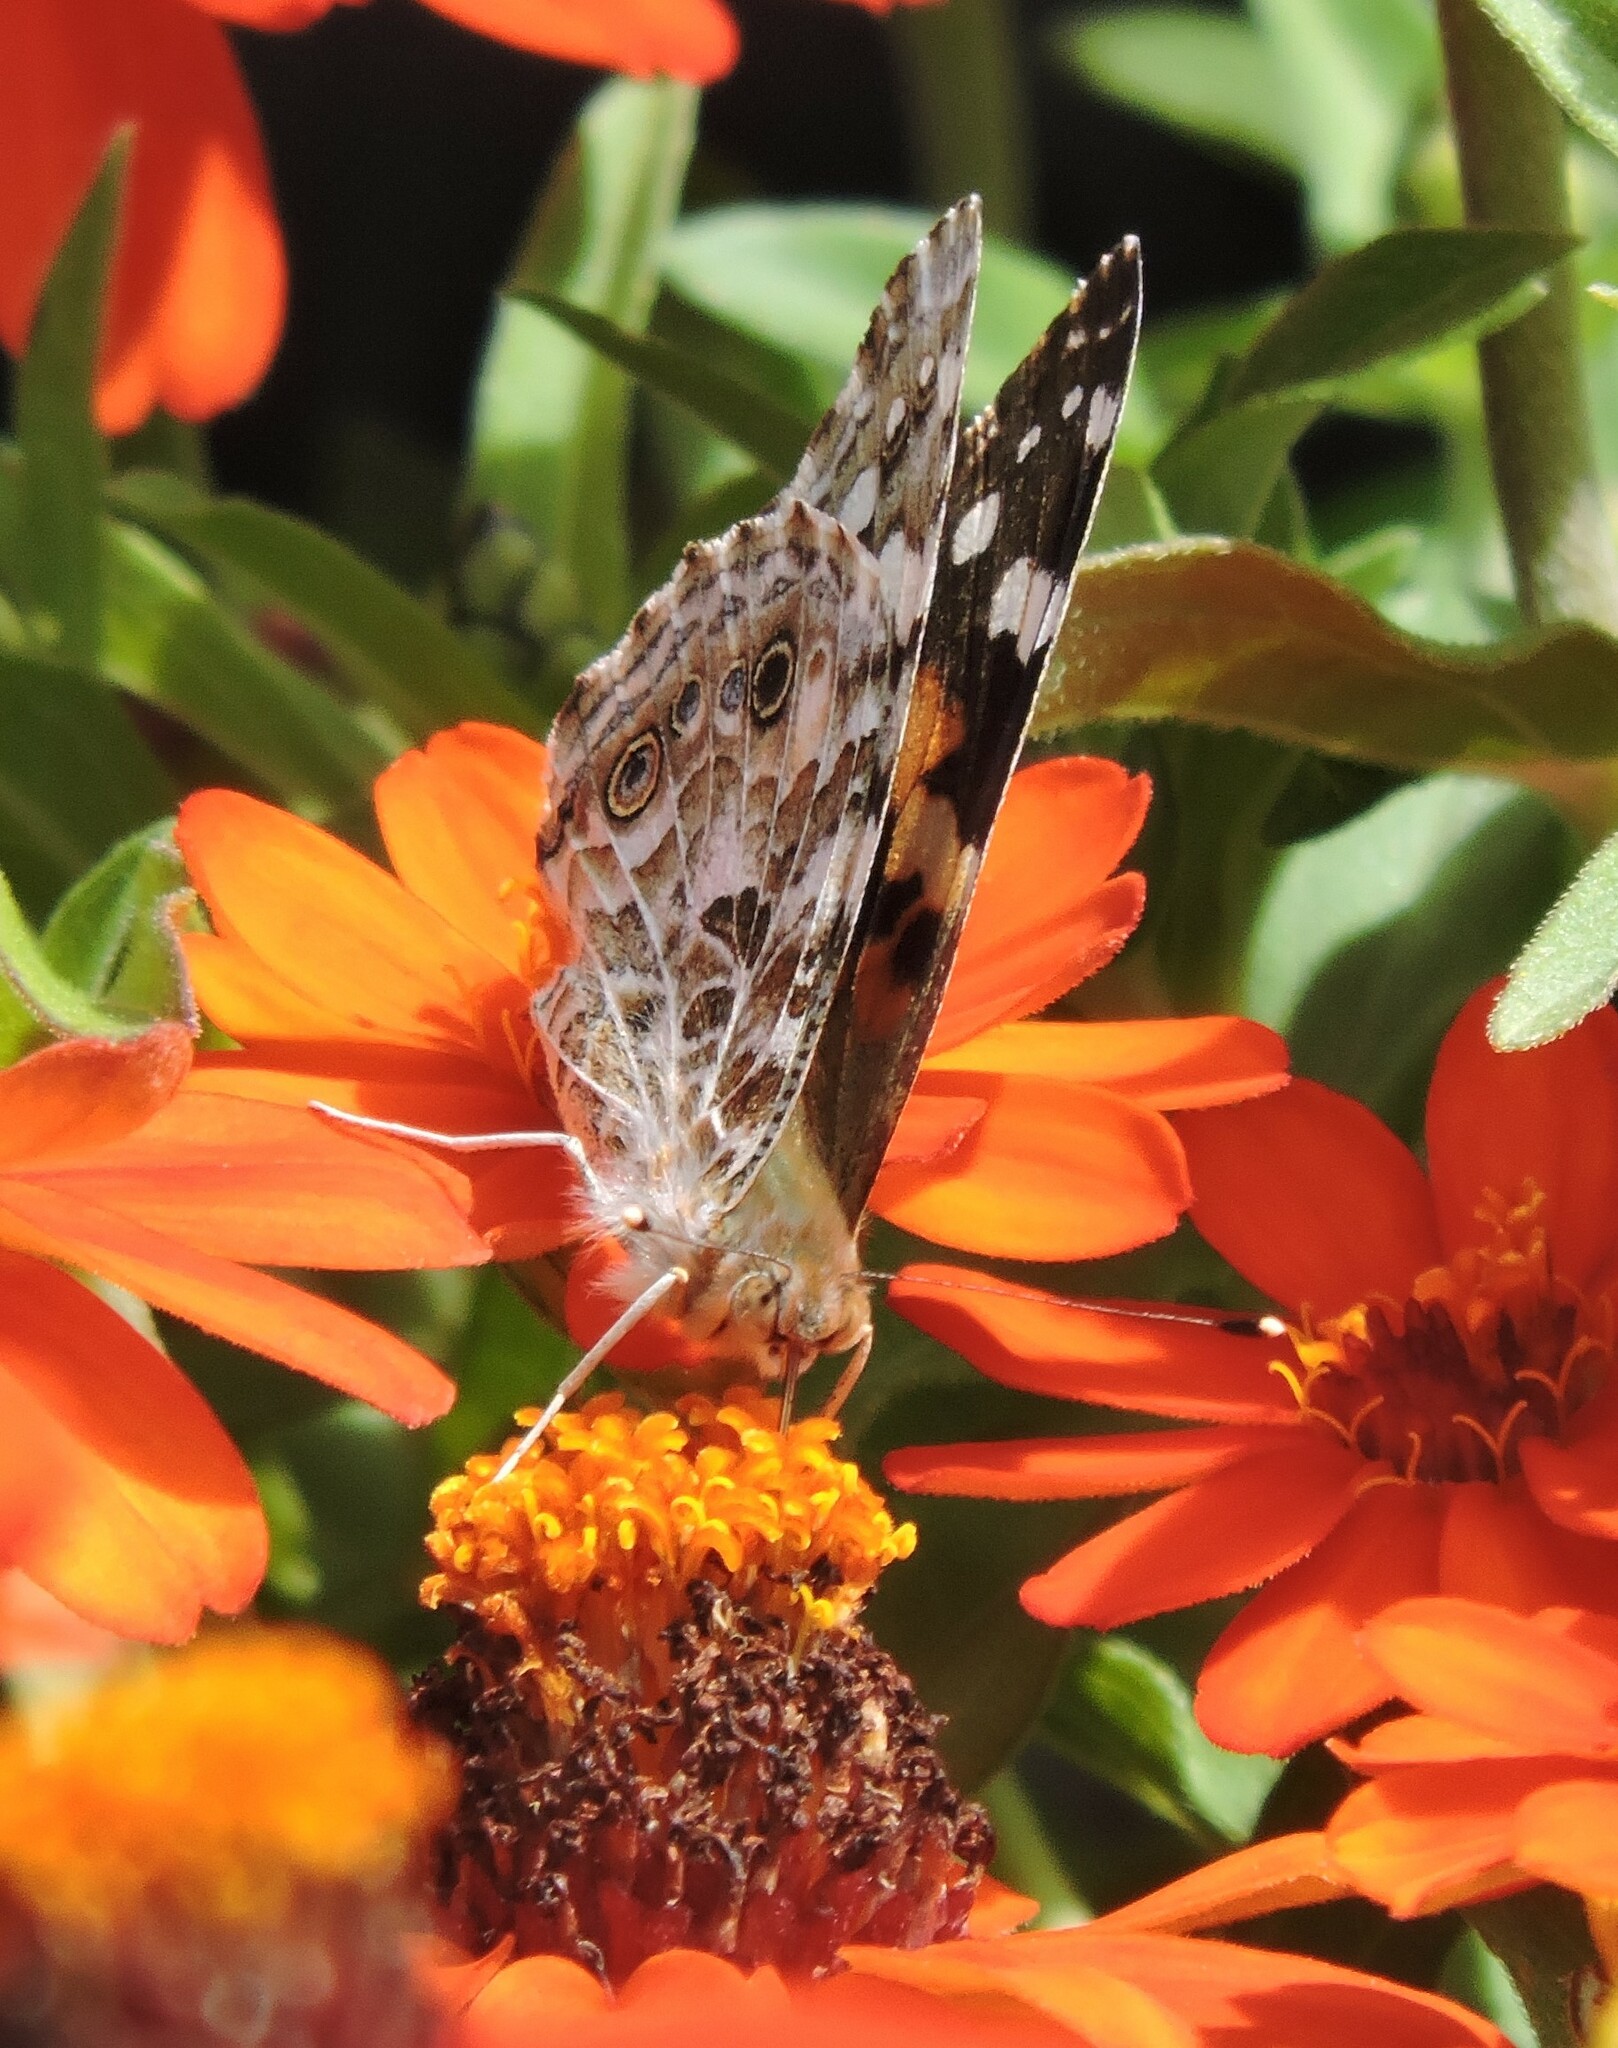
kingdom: Animalia
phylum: Arthropoda
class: Insecta
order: Lepidoptera
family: Nymphalidae
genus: Vanessa
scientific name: Vanessa cardui
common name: Painted lady
